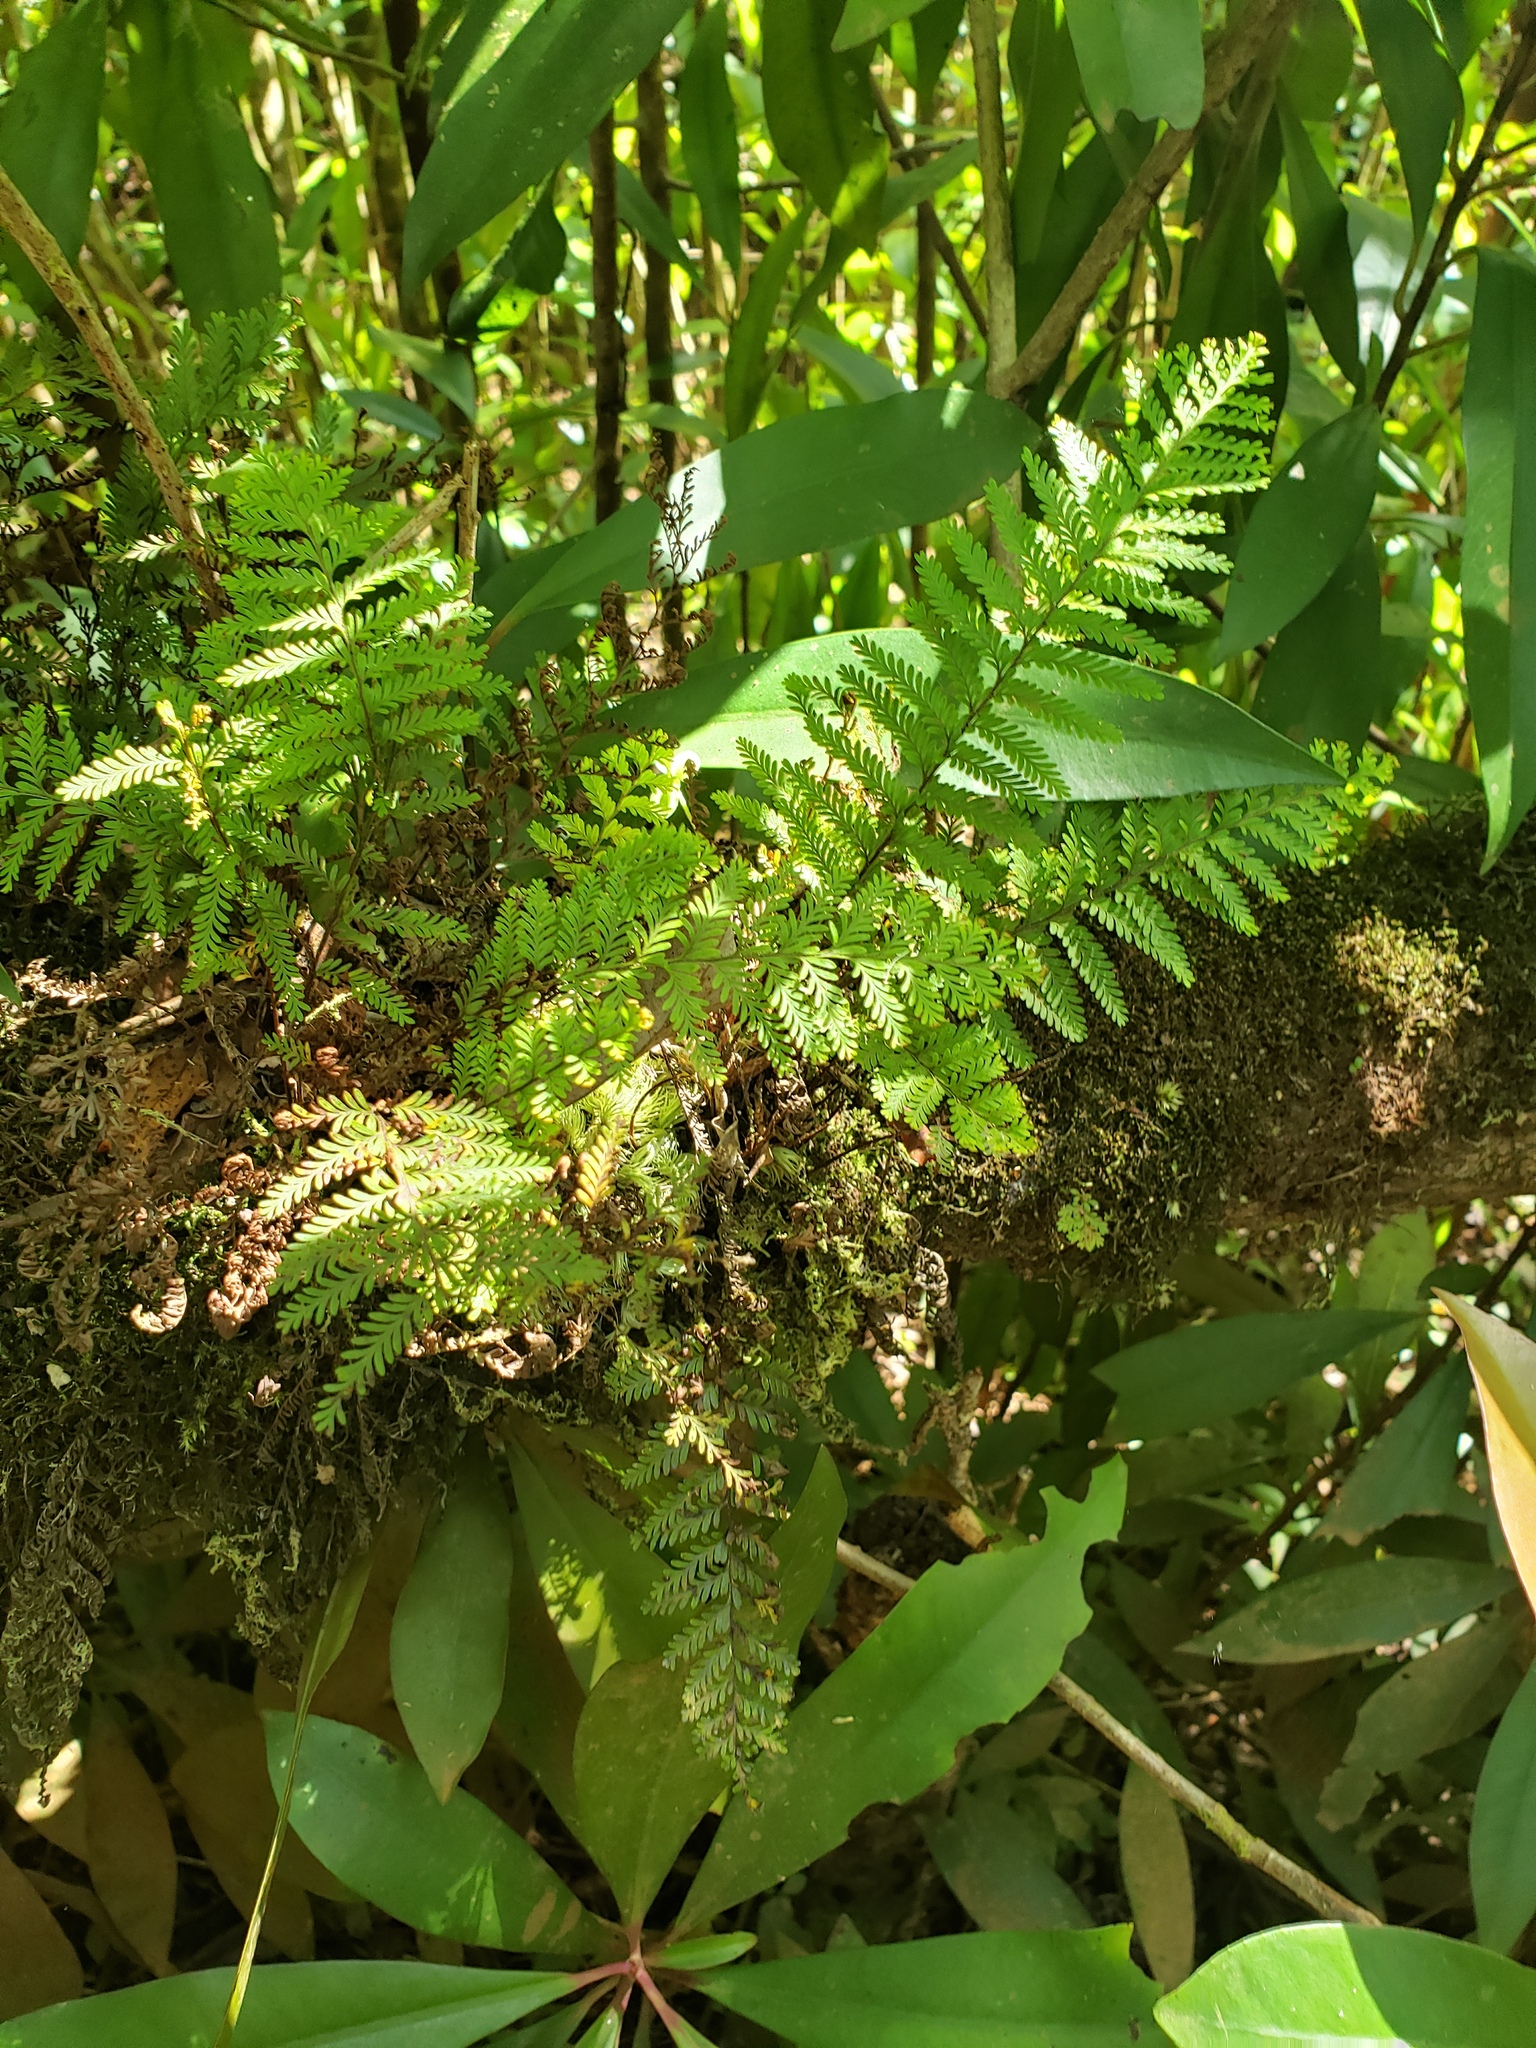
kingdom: Plantae
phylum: Tracheophyta
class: Polypodiopsida
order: Polypodiales
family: Polypodiaceae
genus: Adenophorus
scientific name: Adenophorus tamariscinus
